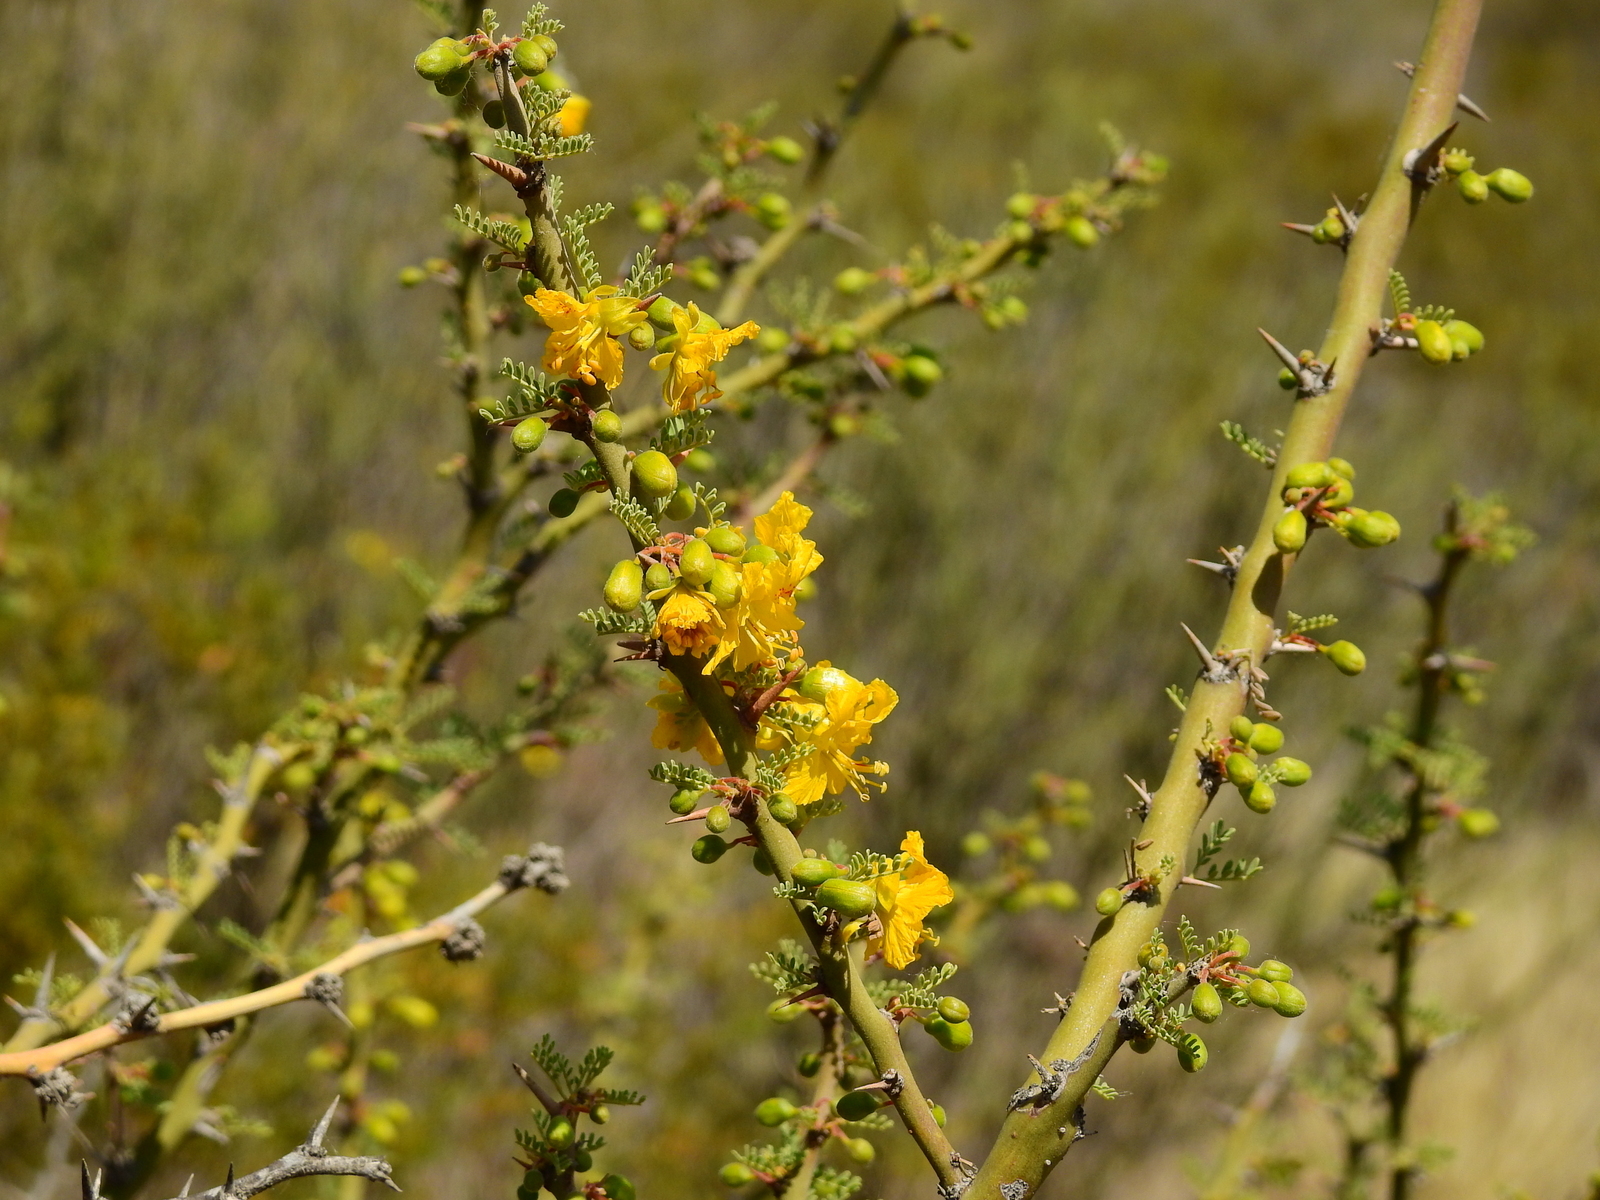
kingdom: Plantae
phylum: Tracheophyta
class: Magnoliopsida
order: Fabales
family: Fabaceae
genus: Parkinsonia
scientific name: Parkinsonia praecox
